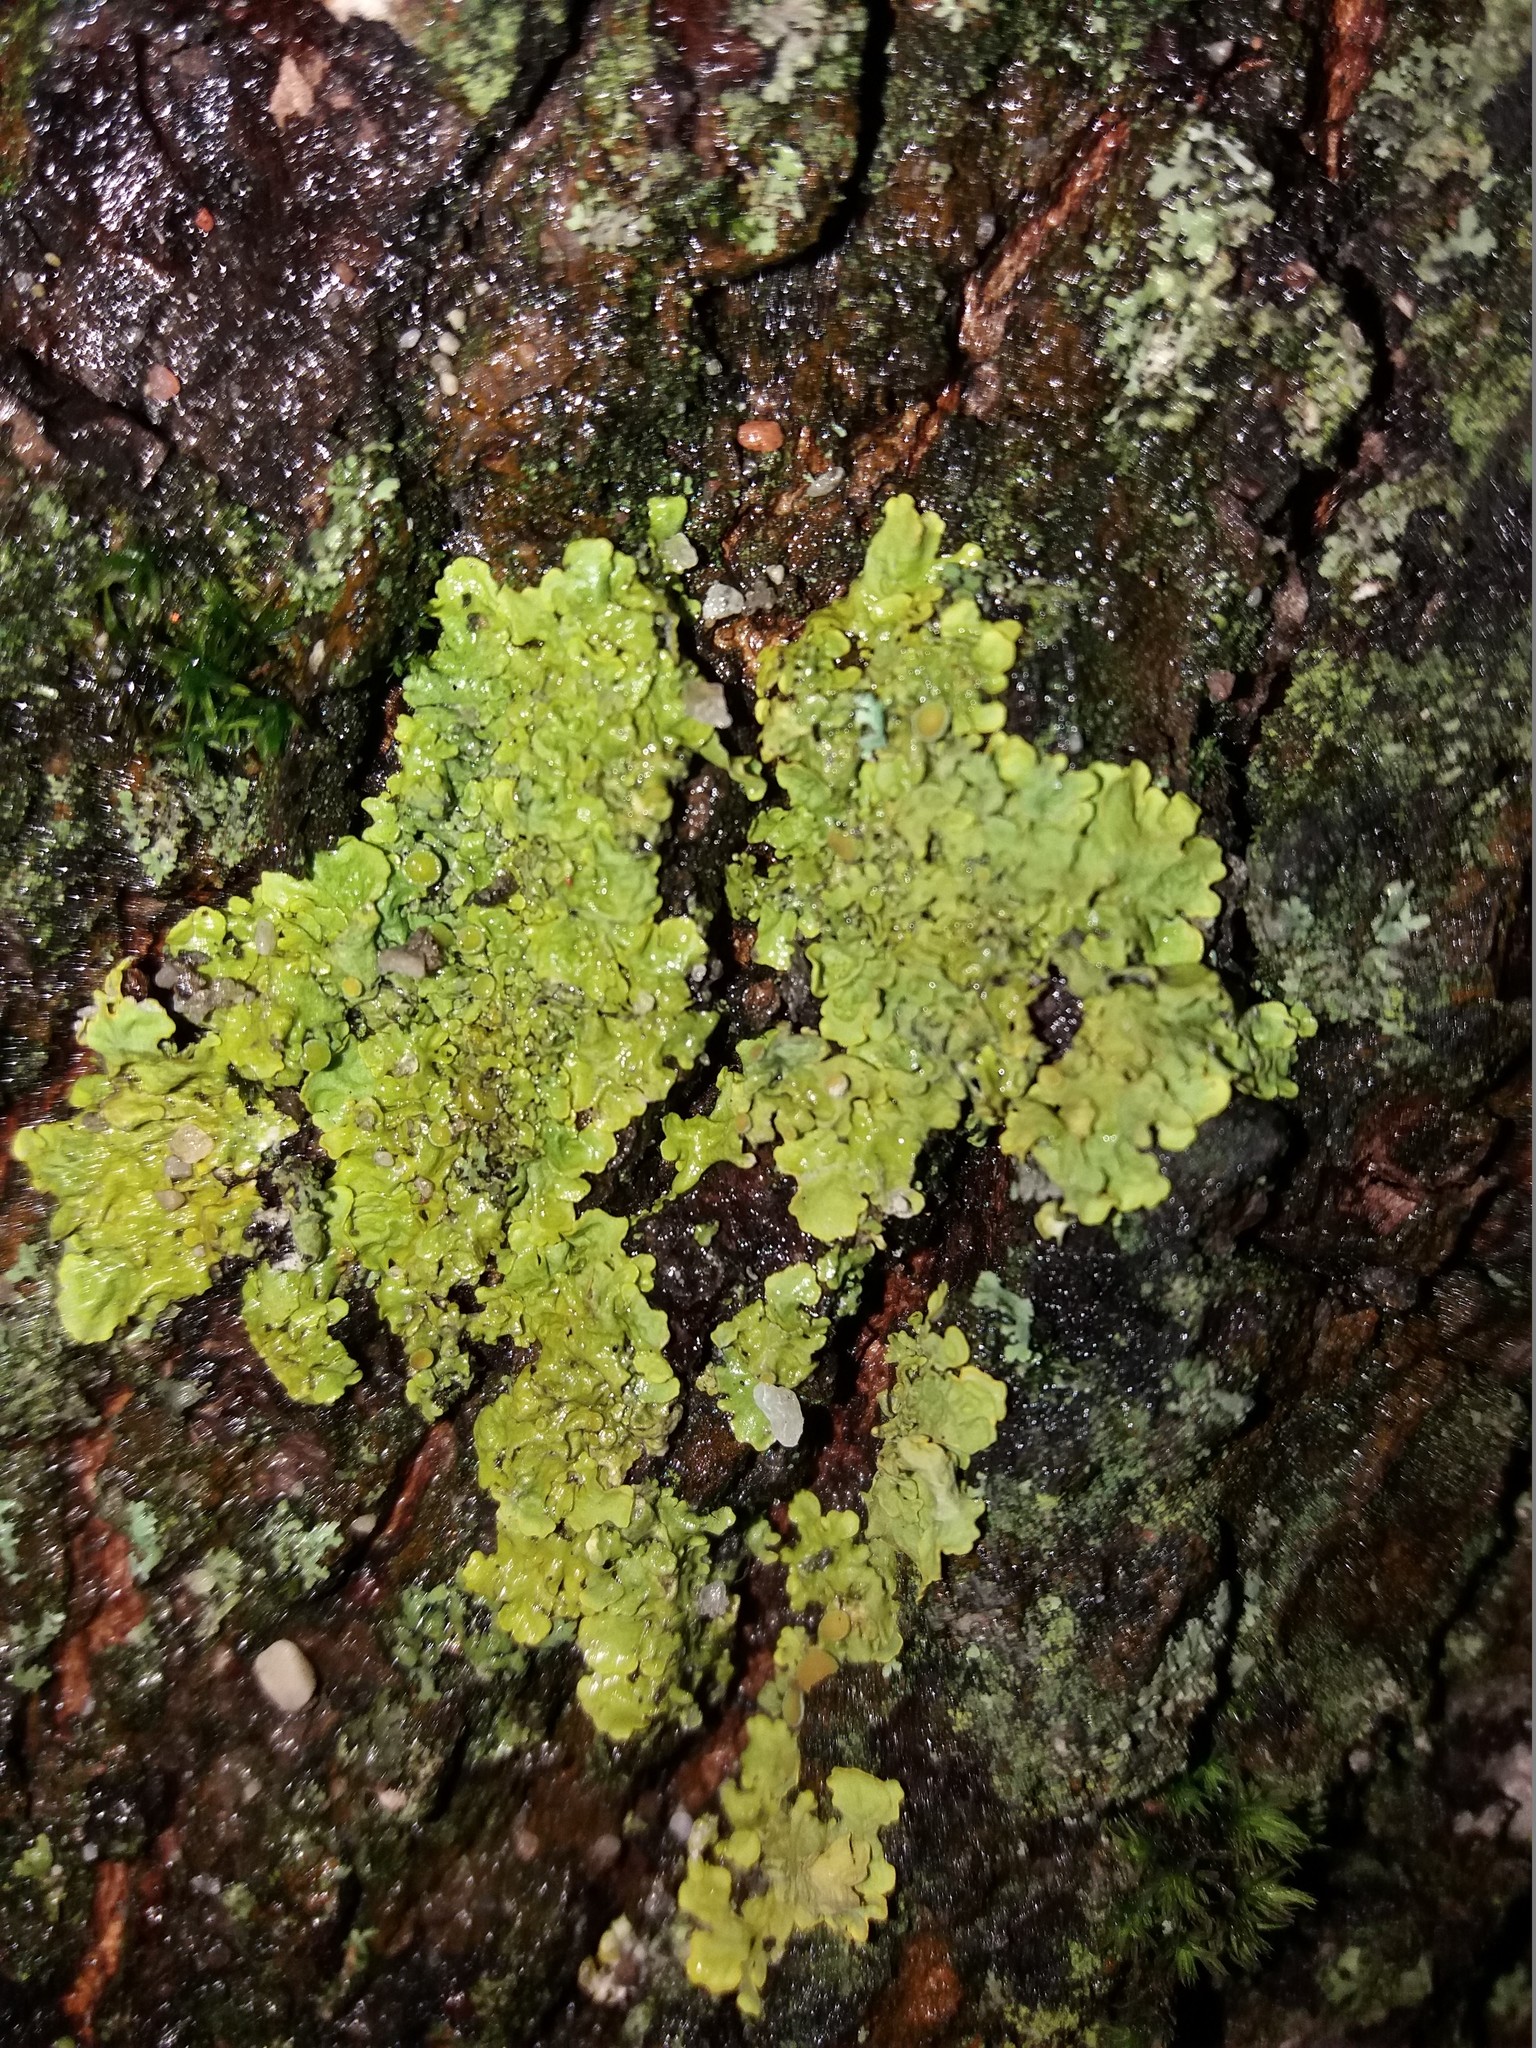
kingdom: Fungi
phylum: Ascomycota
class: Lecanoromycetes
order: Teloschistales
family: Teloschistaceae
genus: Xanthoria
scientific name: Xanthoria parietina
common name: Common orange lichen
